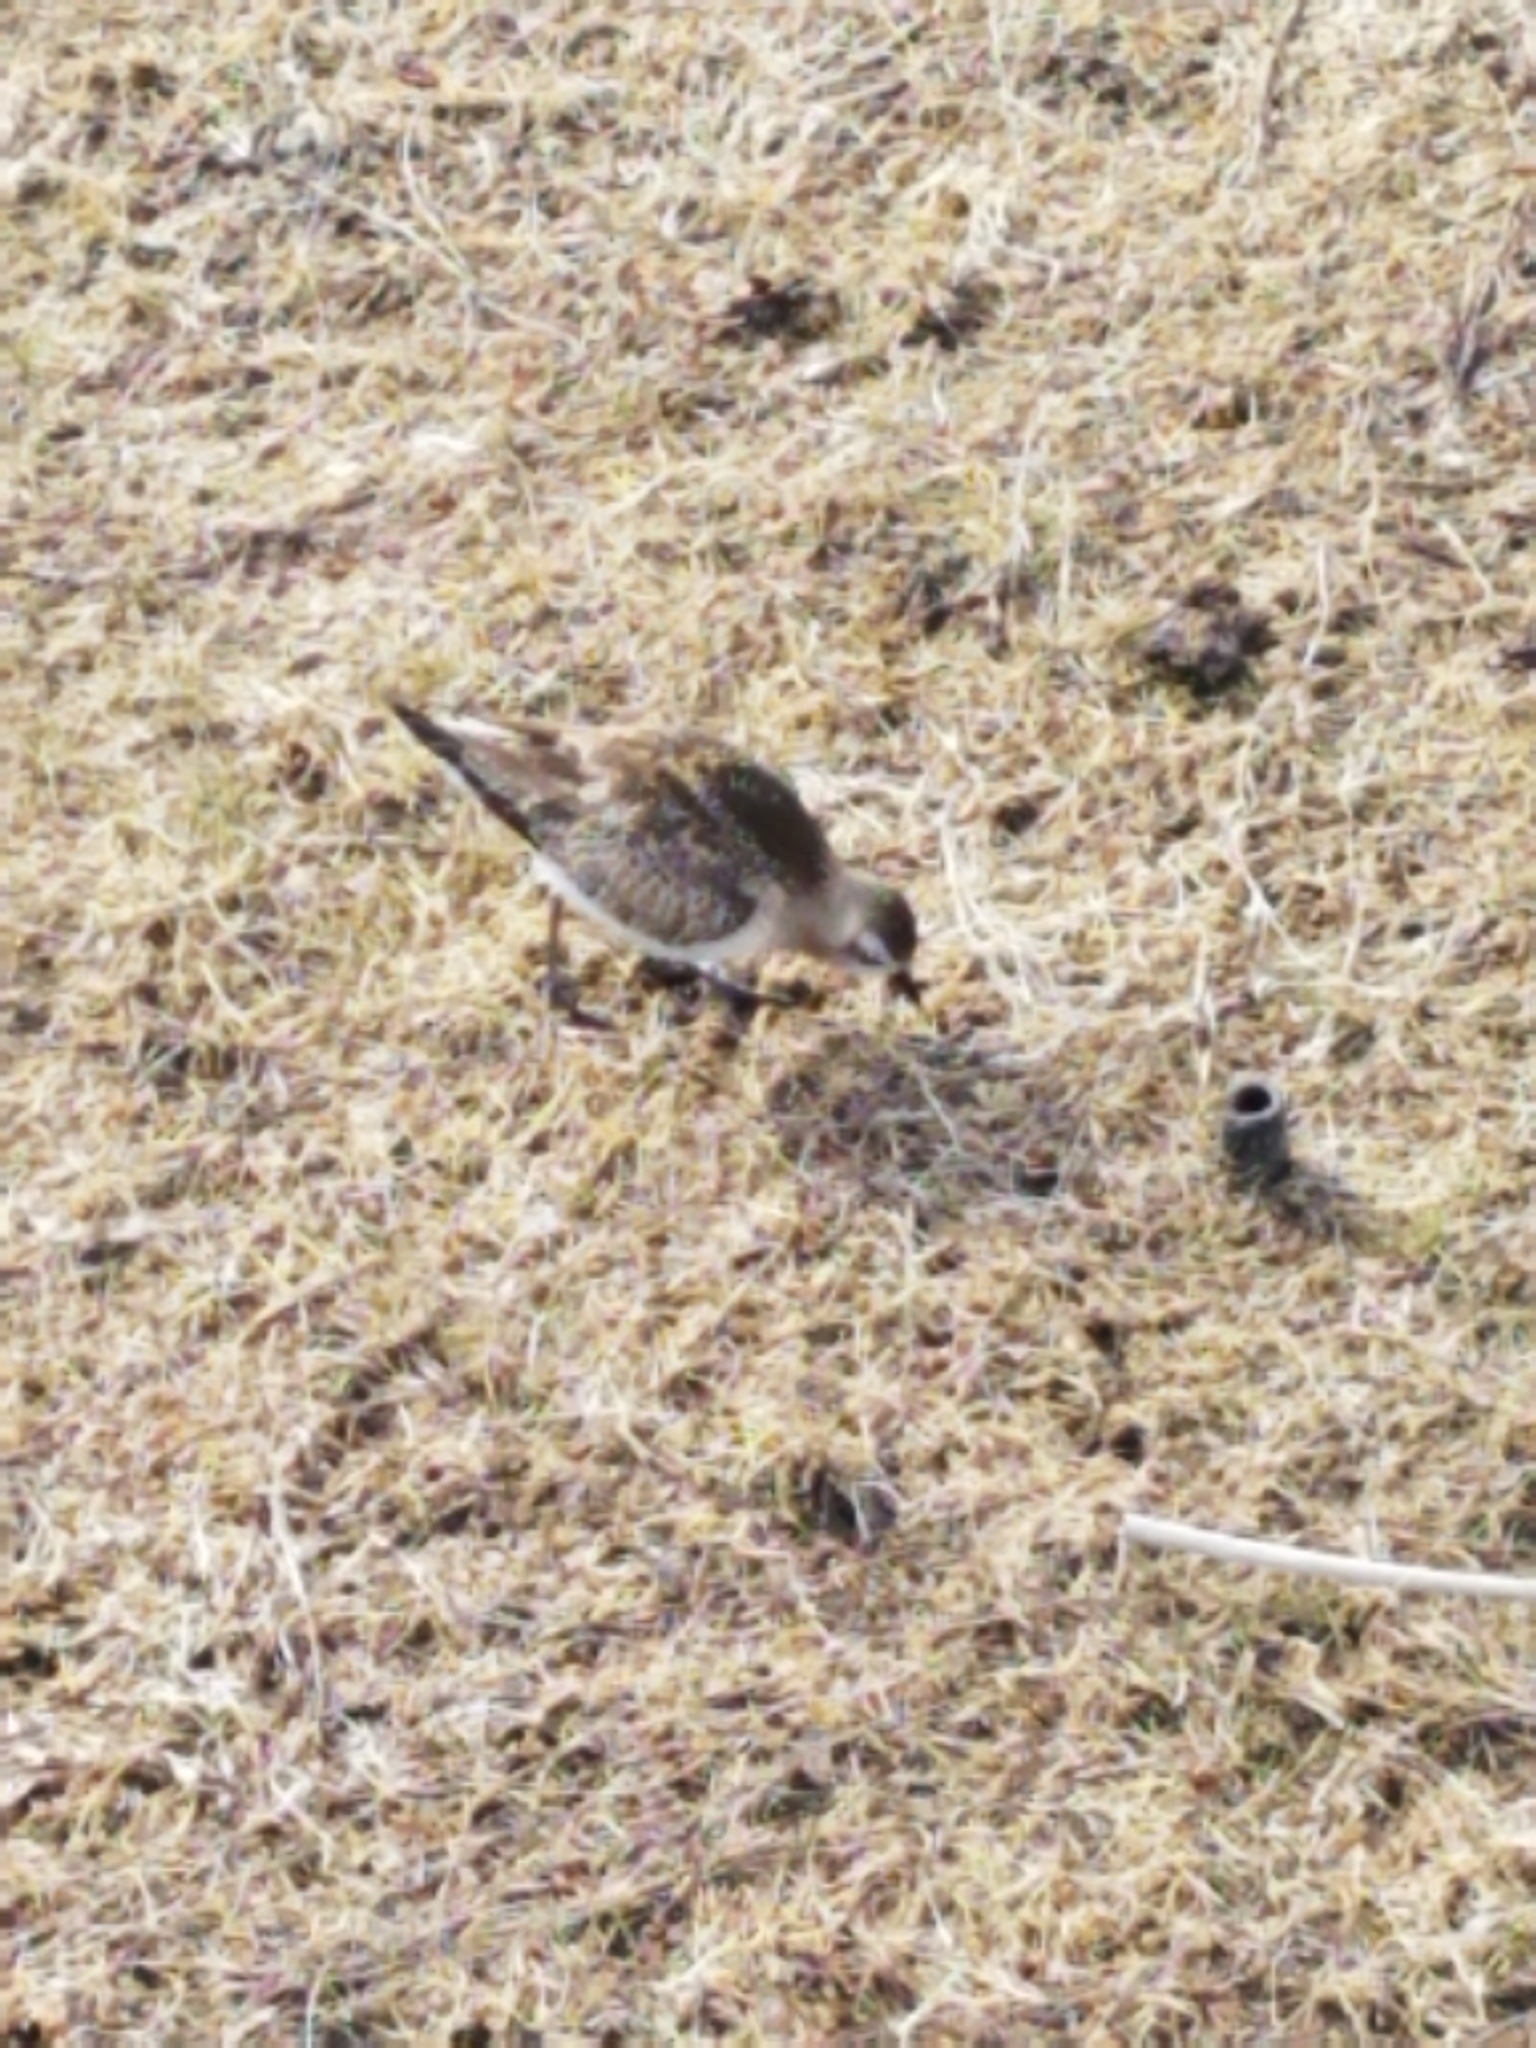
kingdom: Animalia
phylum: Chordata
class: Aves
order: Charadriiformes
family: Charadriidae
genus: Pluvialis
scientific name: Pluvialis dominica
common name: American golden plover
